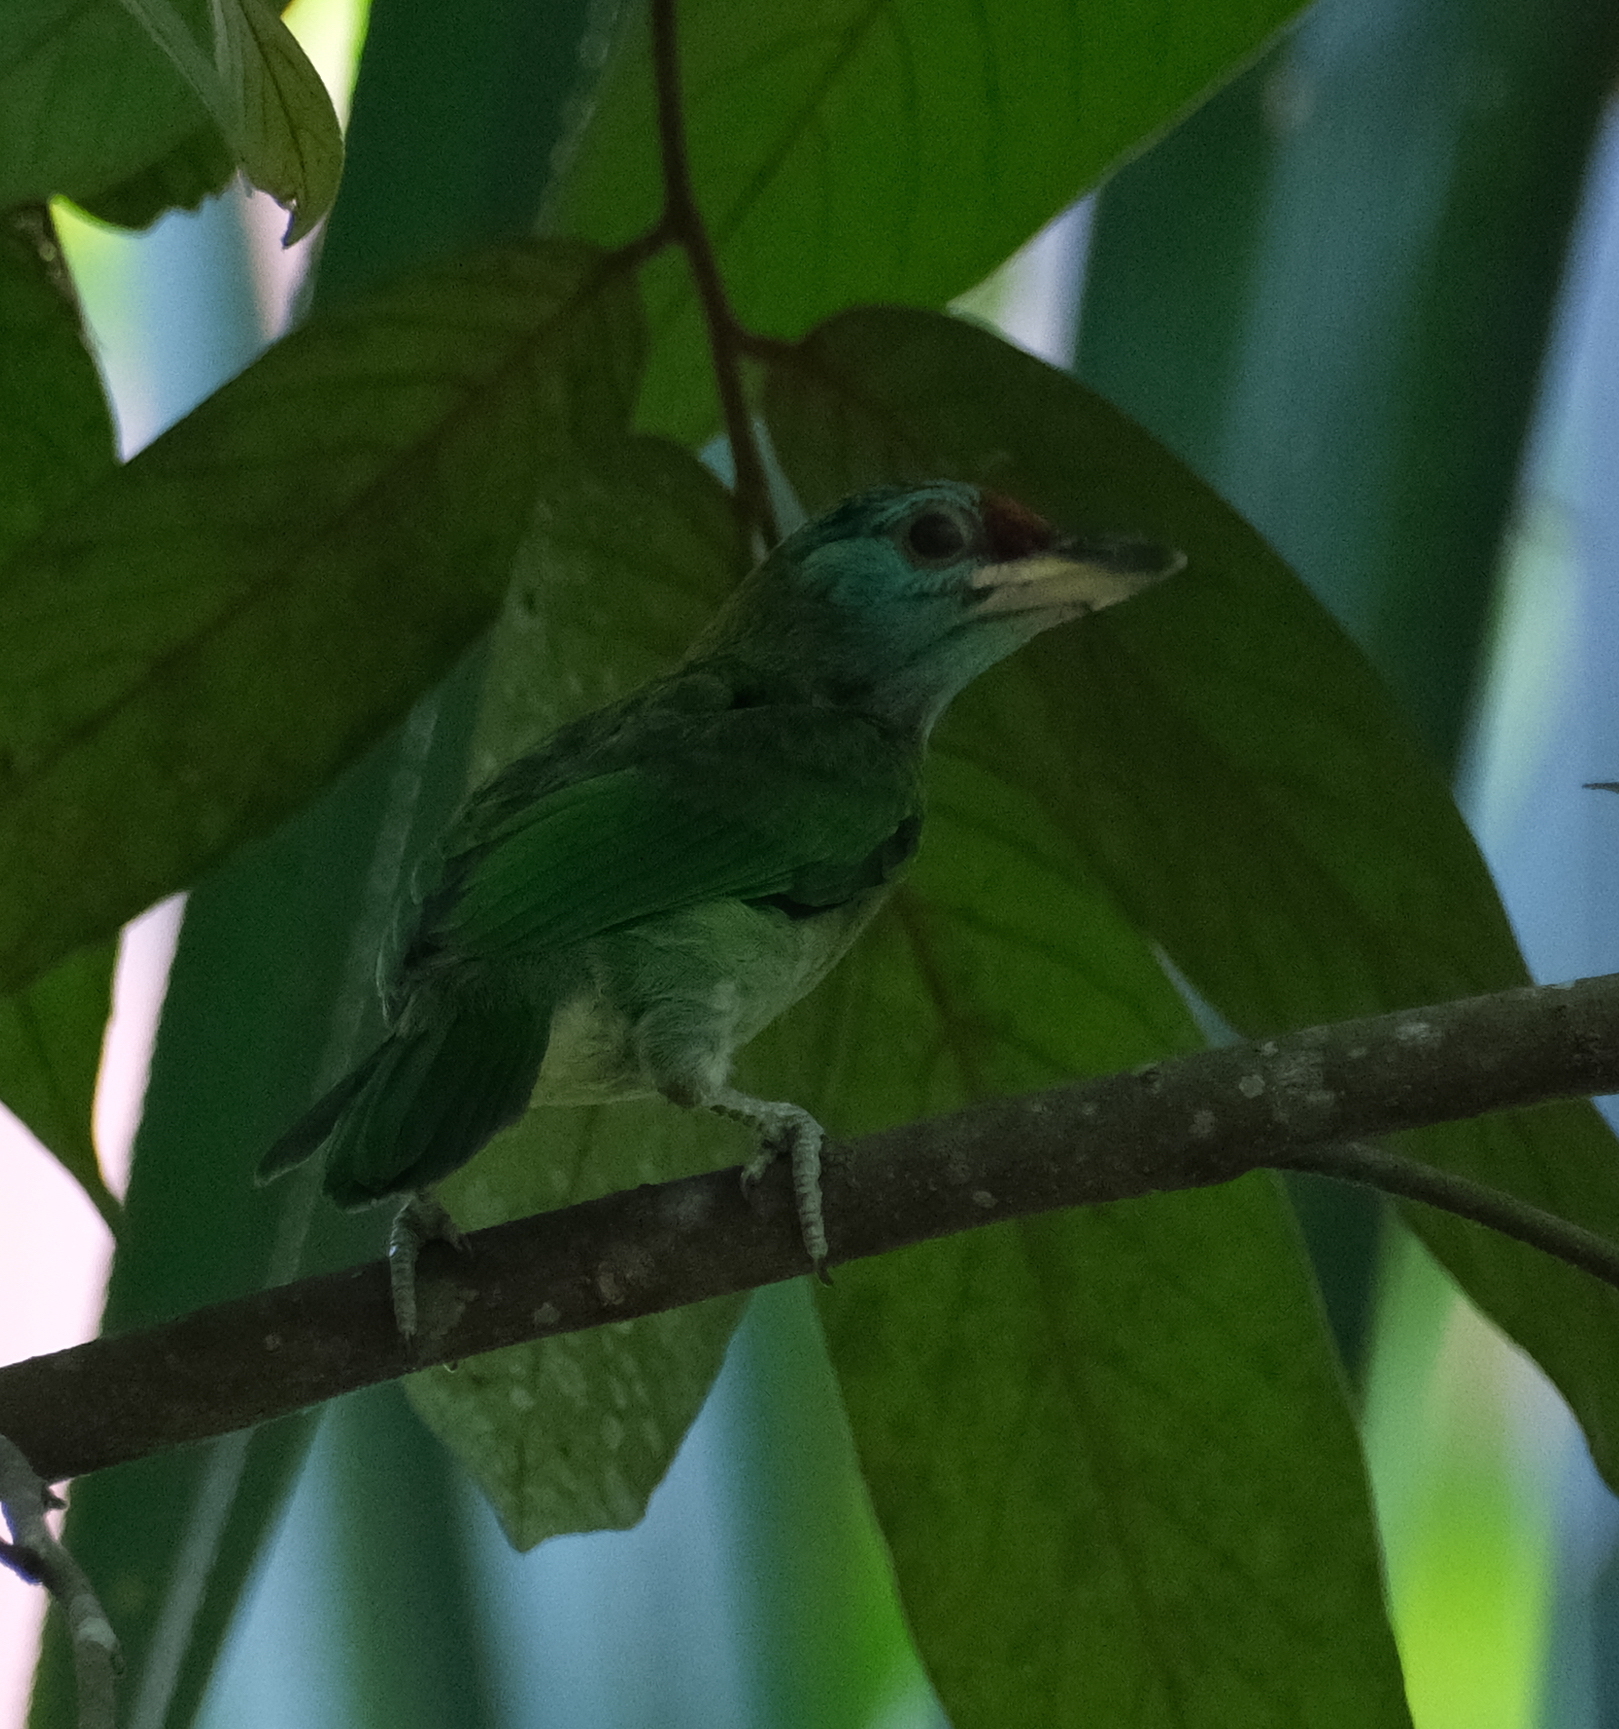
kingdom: Animalia
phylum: Chordata
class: Aves
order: Piciformes
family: Megalaimidae
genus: Psilopogon
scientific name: Psilopogon asiaticus
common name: Blue-throated barbet
